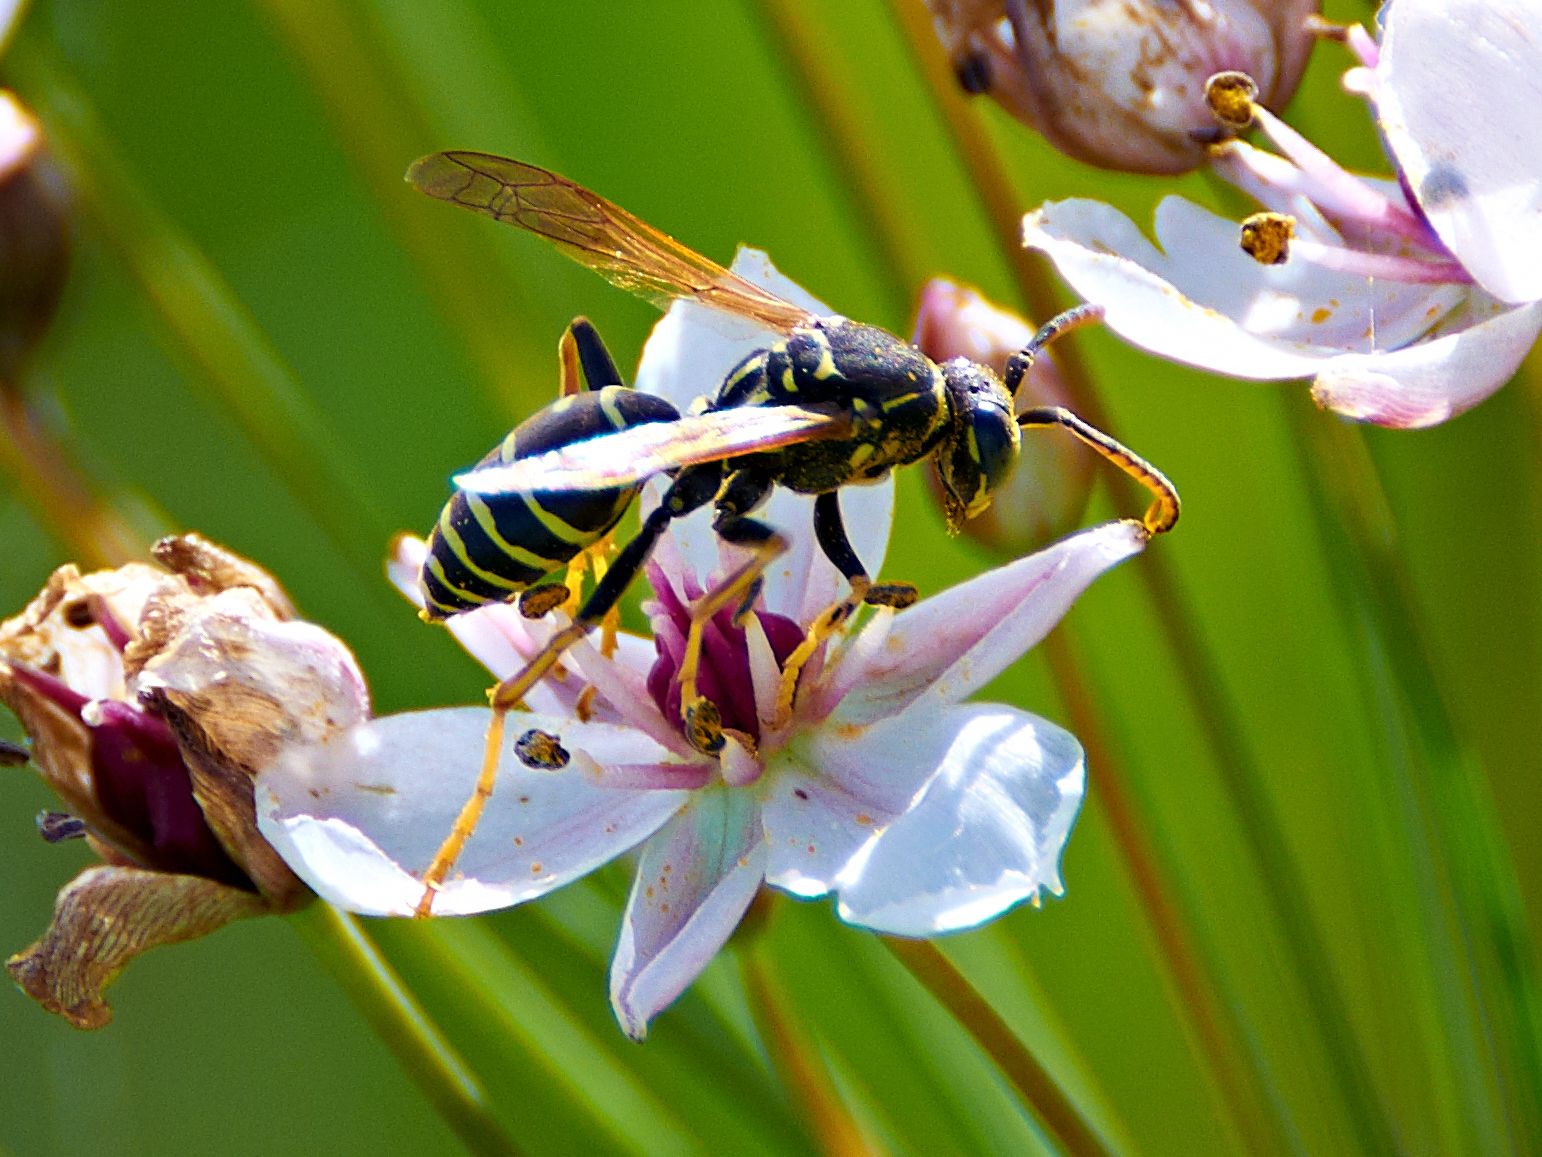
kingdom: Animalia
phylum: Arthropoda
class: Insecta
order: Hymenoptera
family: Eumenidae
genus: Polistes
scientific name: Polistes nimpha
